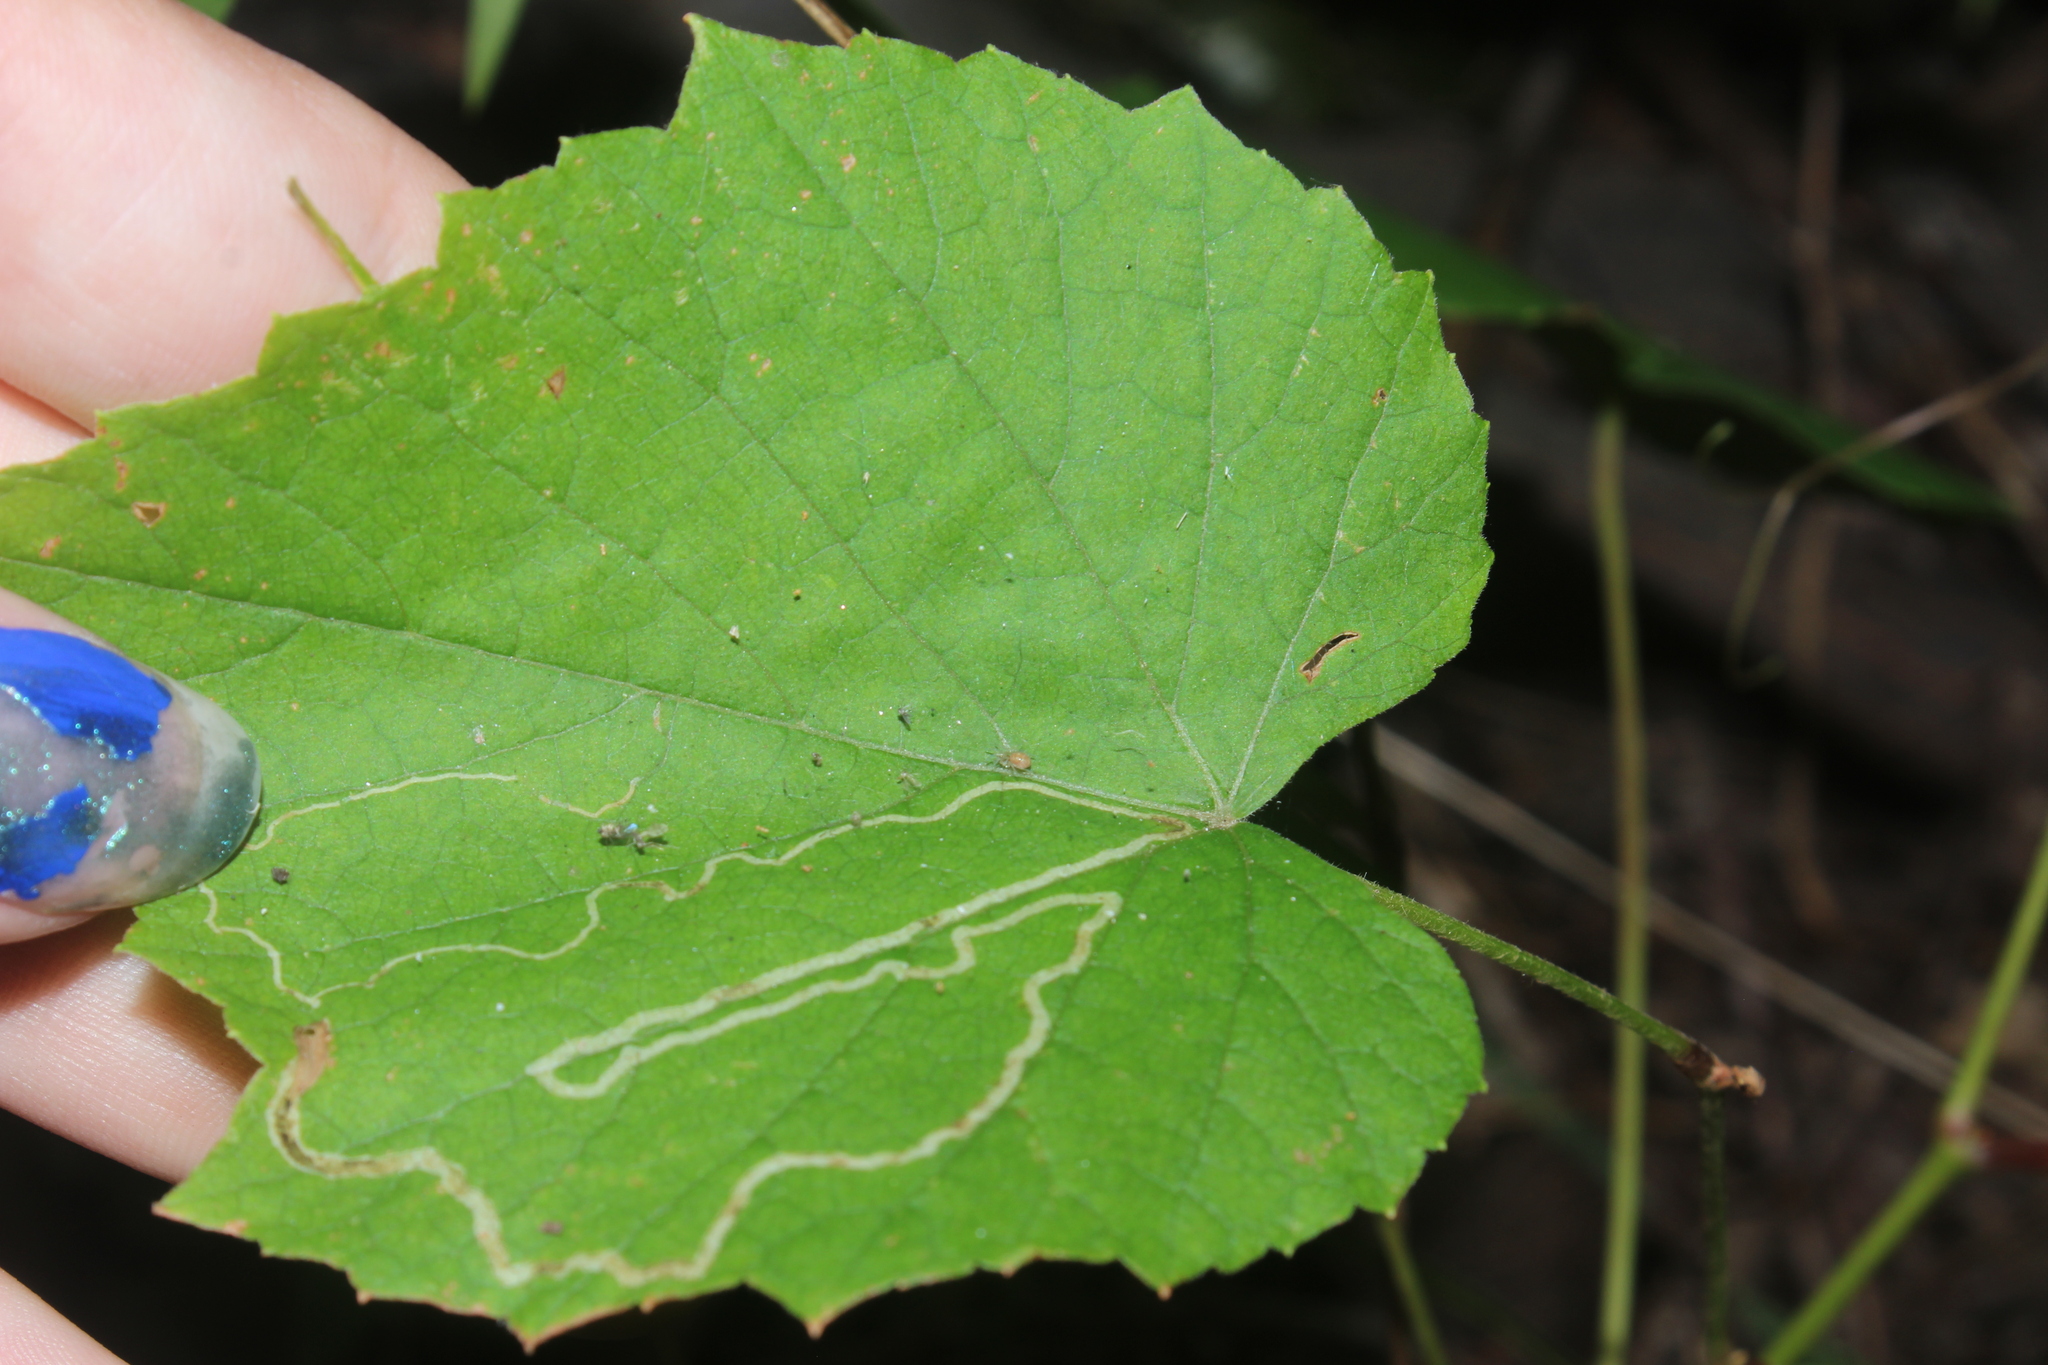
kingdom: Animalia
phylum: Arthropoda
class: Insecta
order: Lepidoptera
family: Gracillariidae
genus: Phyllocnistis
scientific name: Phyllocnistis vitifoliella
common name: Grape leaf-miner moth
